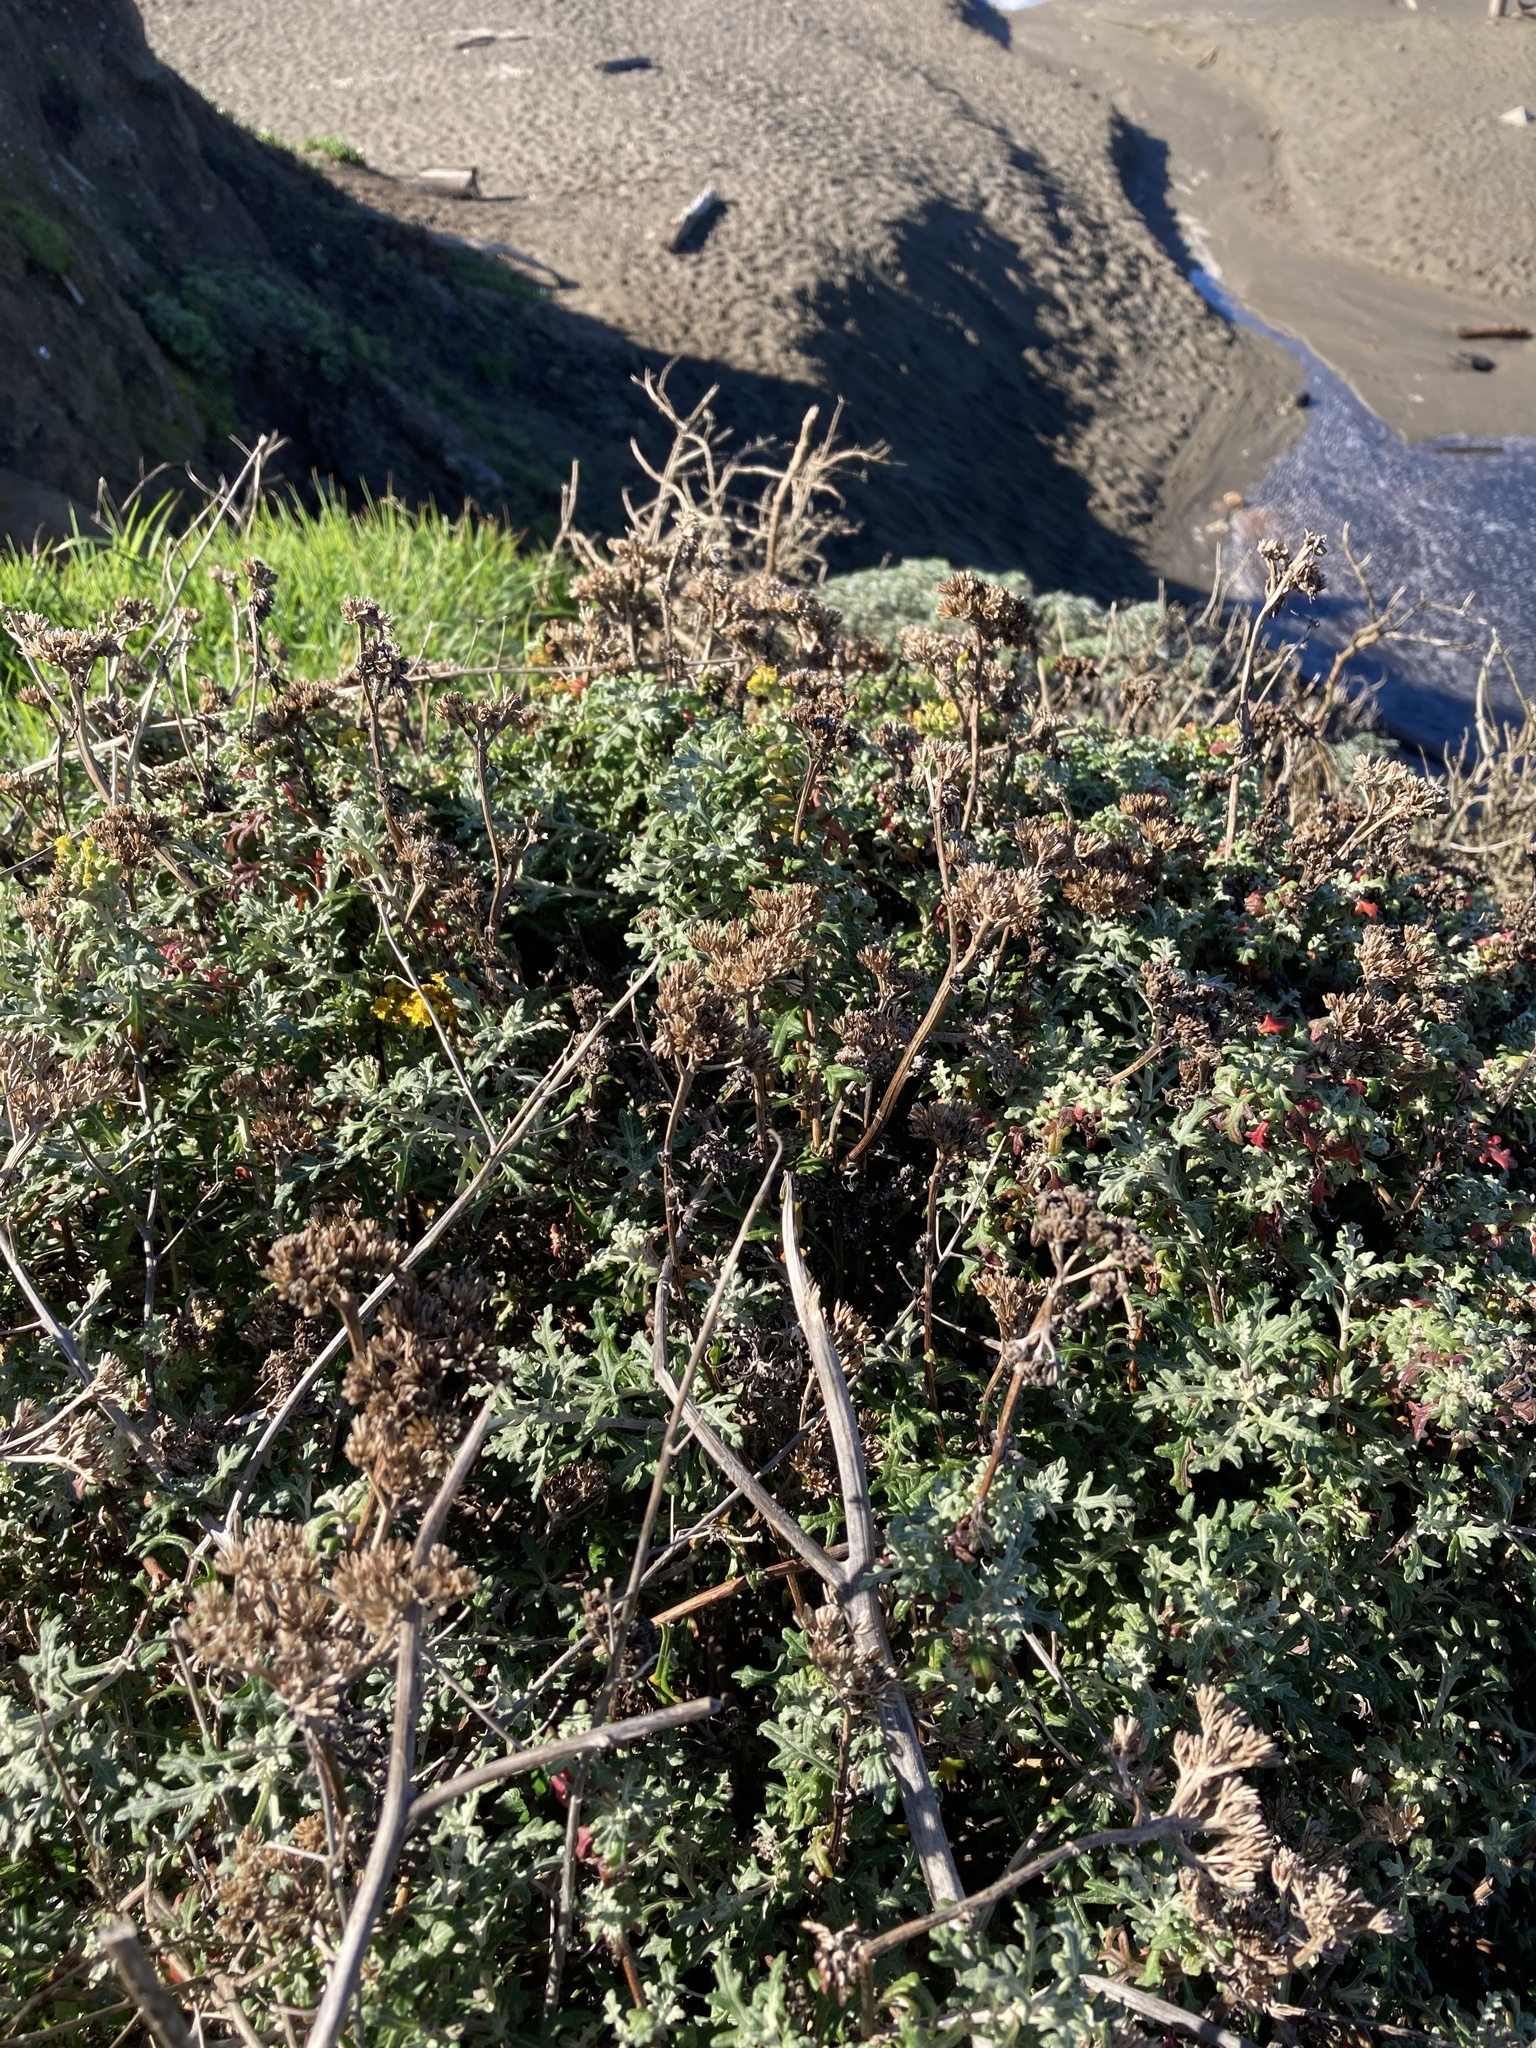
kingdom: Plantae
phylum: Tracheophyta
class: Magnoliopsida
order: Asterales
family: Asteraceae
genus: Eriophyllum
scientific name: Eriophyllum staechadifolium
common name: Lizardtail
